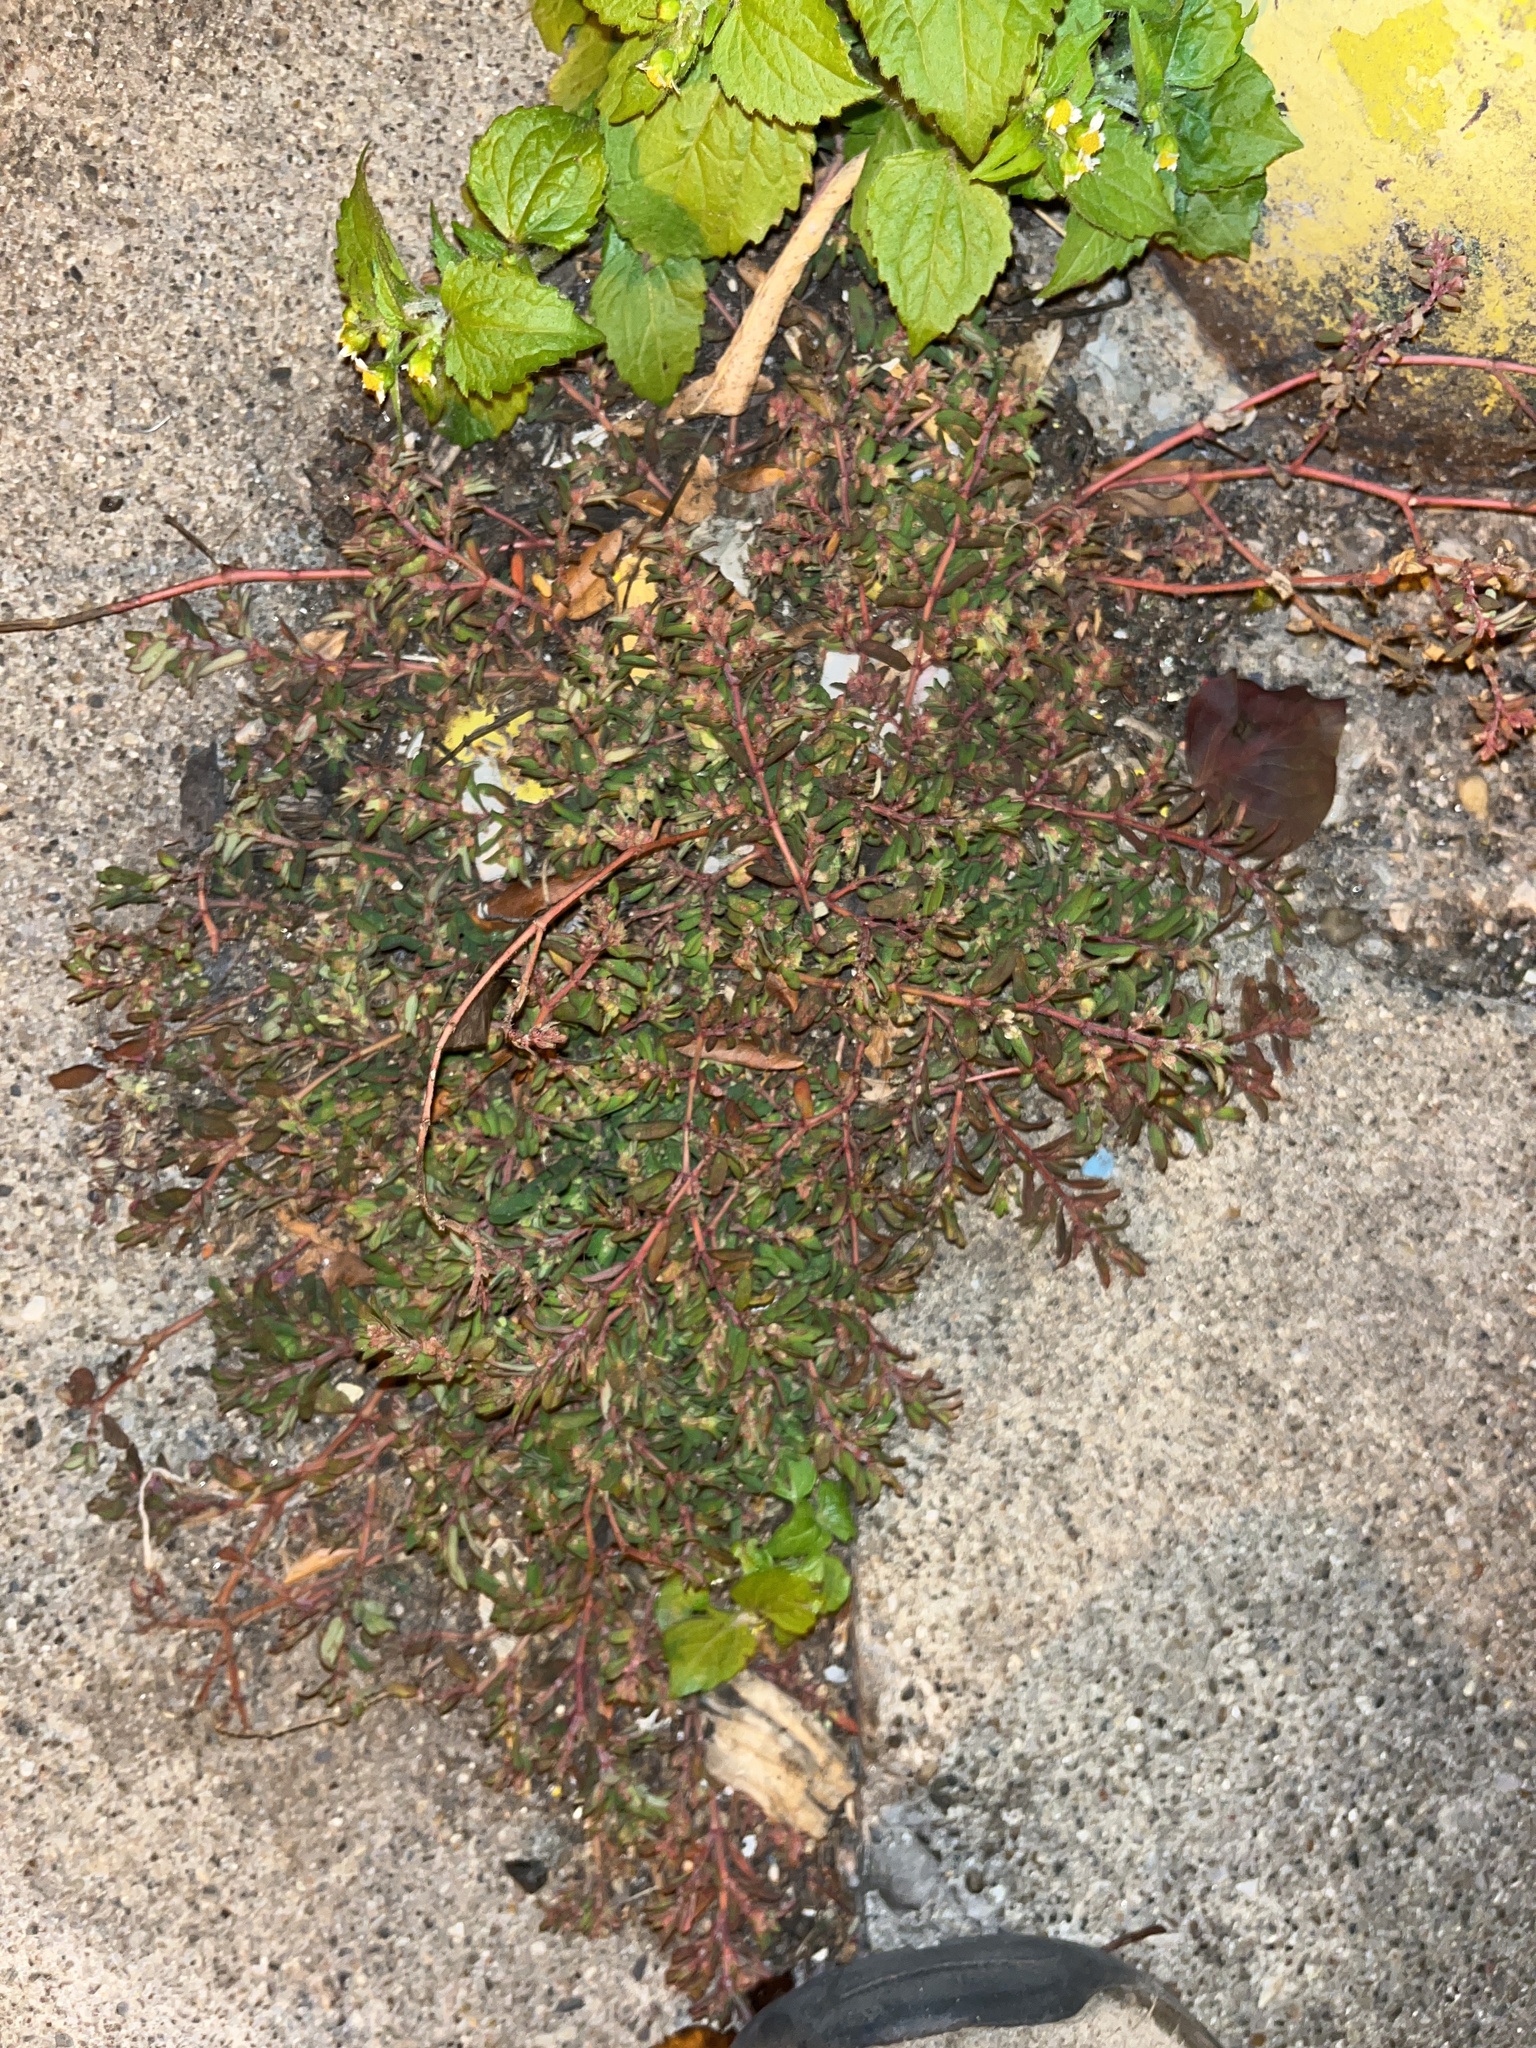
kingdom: Plantae
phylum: Tracheophyta
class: Magnoliopsida
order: Malpighiales
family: Euphorbiaceae
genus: Euphorbia
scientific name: Euphorbia maculata
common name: Spotted spurge
